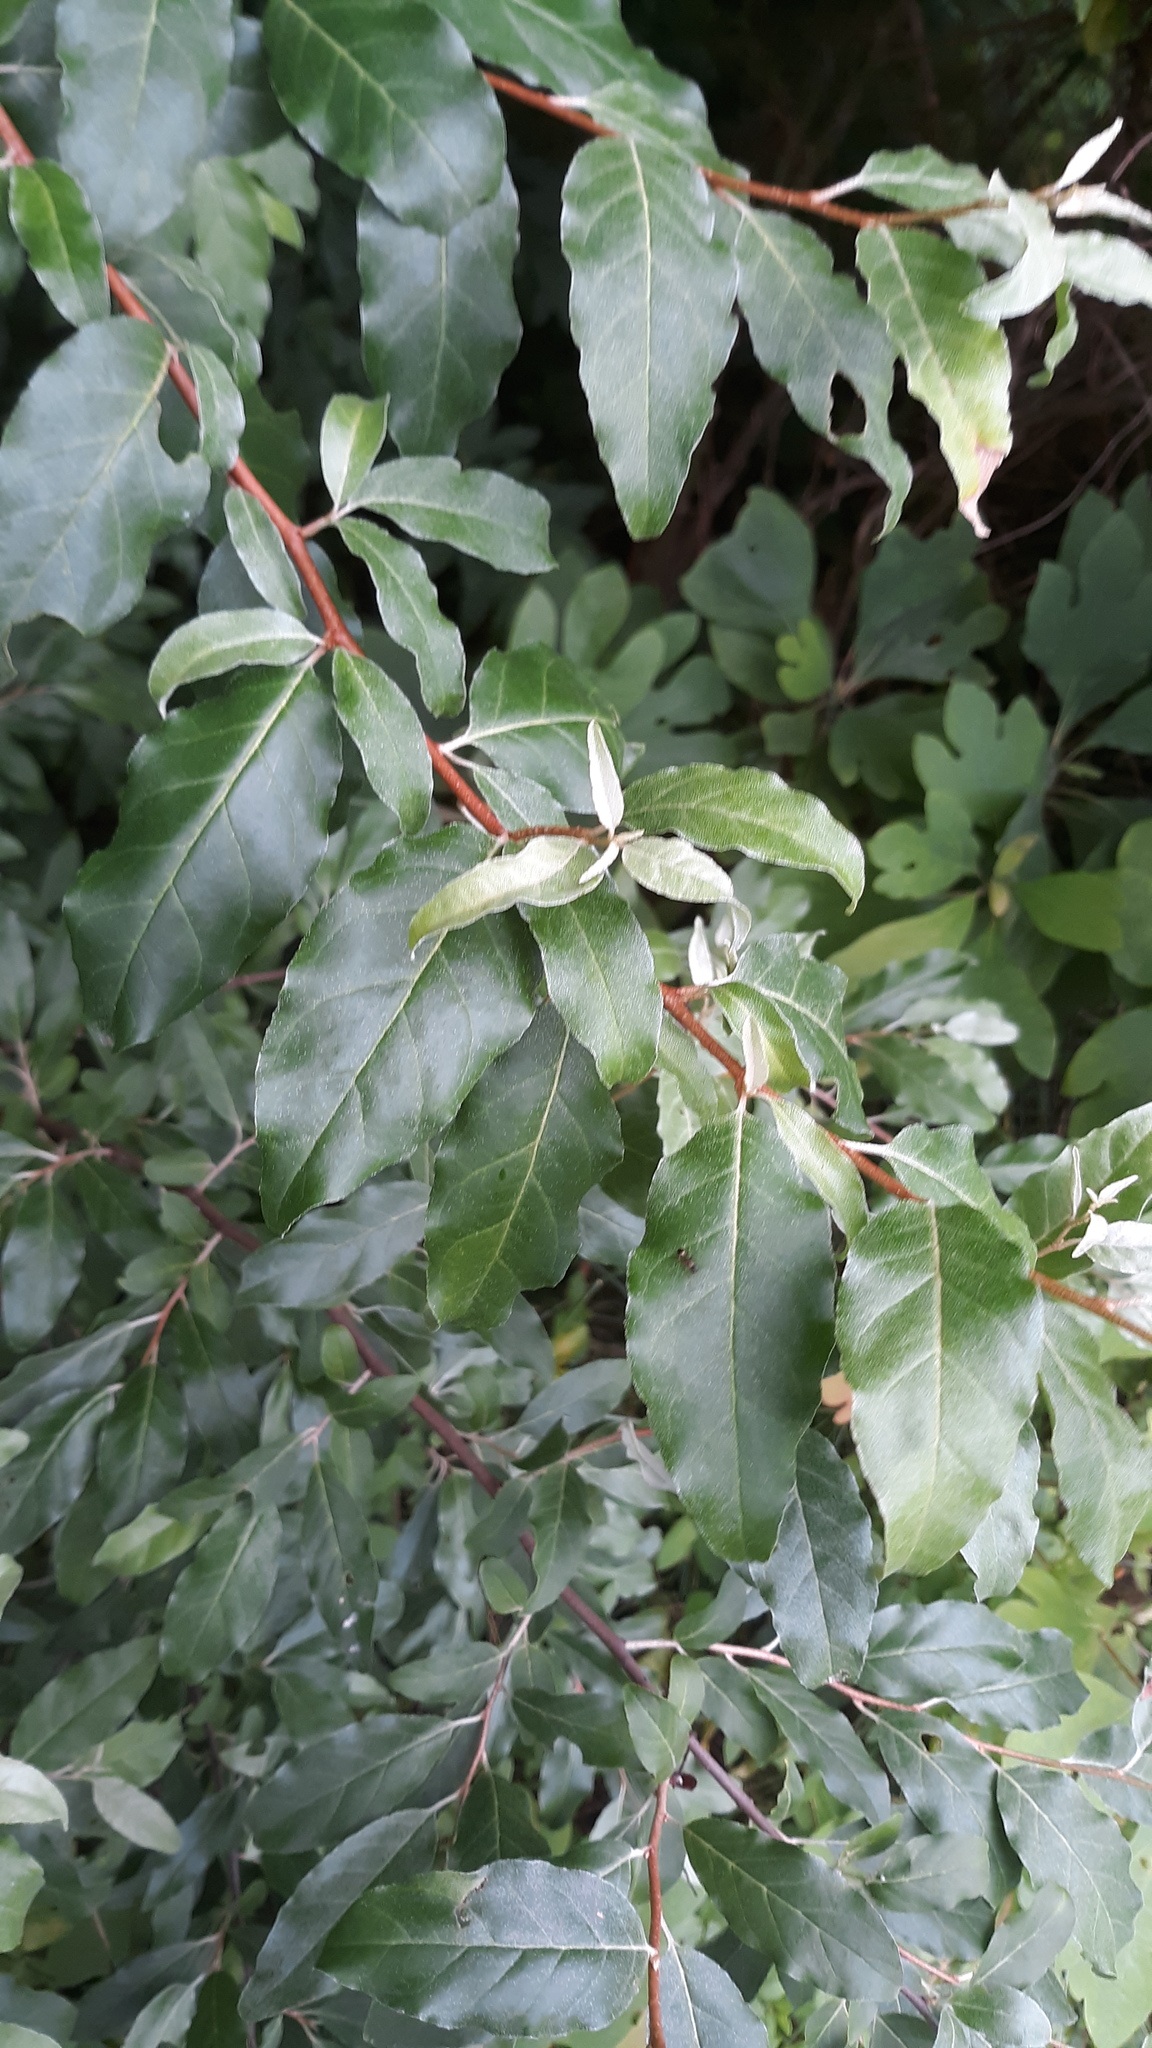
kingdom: Plantae
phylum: Tracheophyta
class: Magnoliopsida
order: Rosales
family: Elaeagnaceae
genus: Elaeagnus
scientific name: Elaeagnus umbellata
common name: Autumn olive
